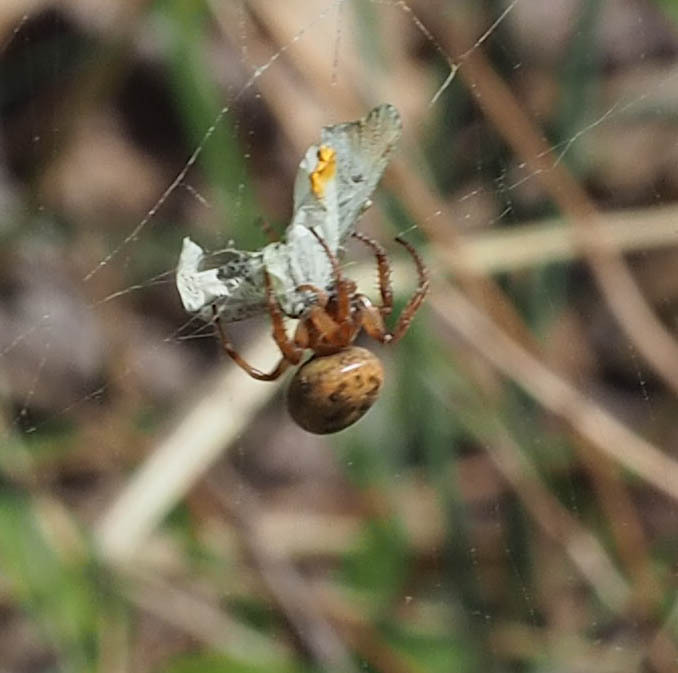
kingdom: Animalia
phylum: Arthropoda
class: Insecta
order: Lepidoptera
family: Pieridae
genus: Anthocharis
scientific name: Anthocharis midea
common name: Falcate orangetip
